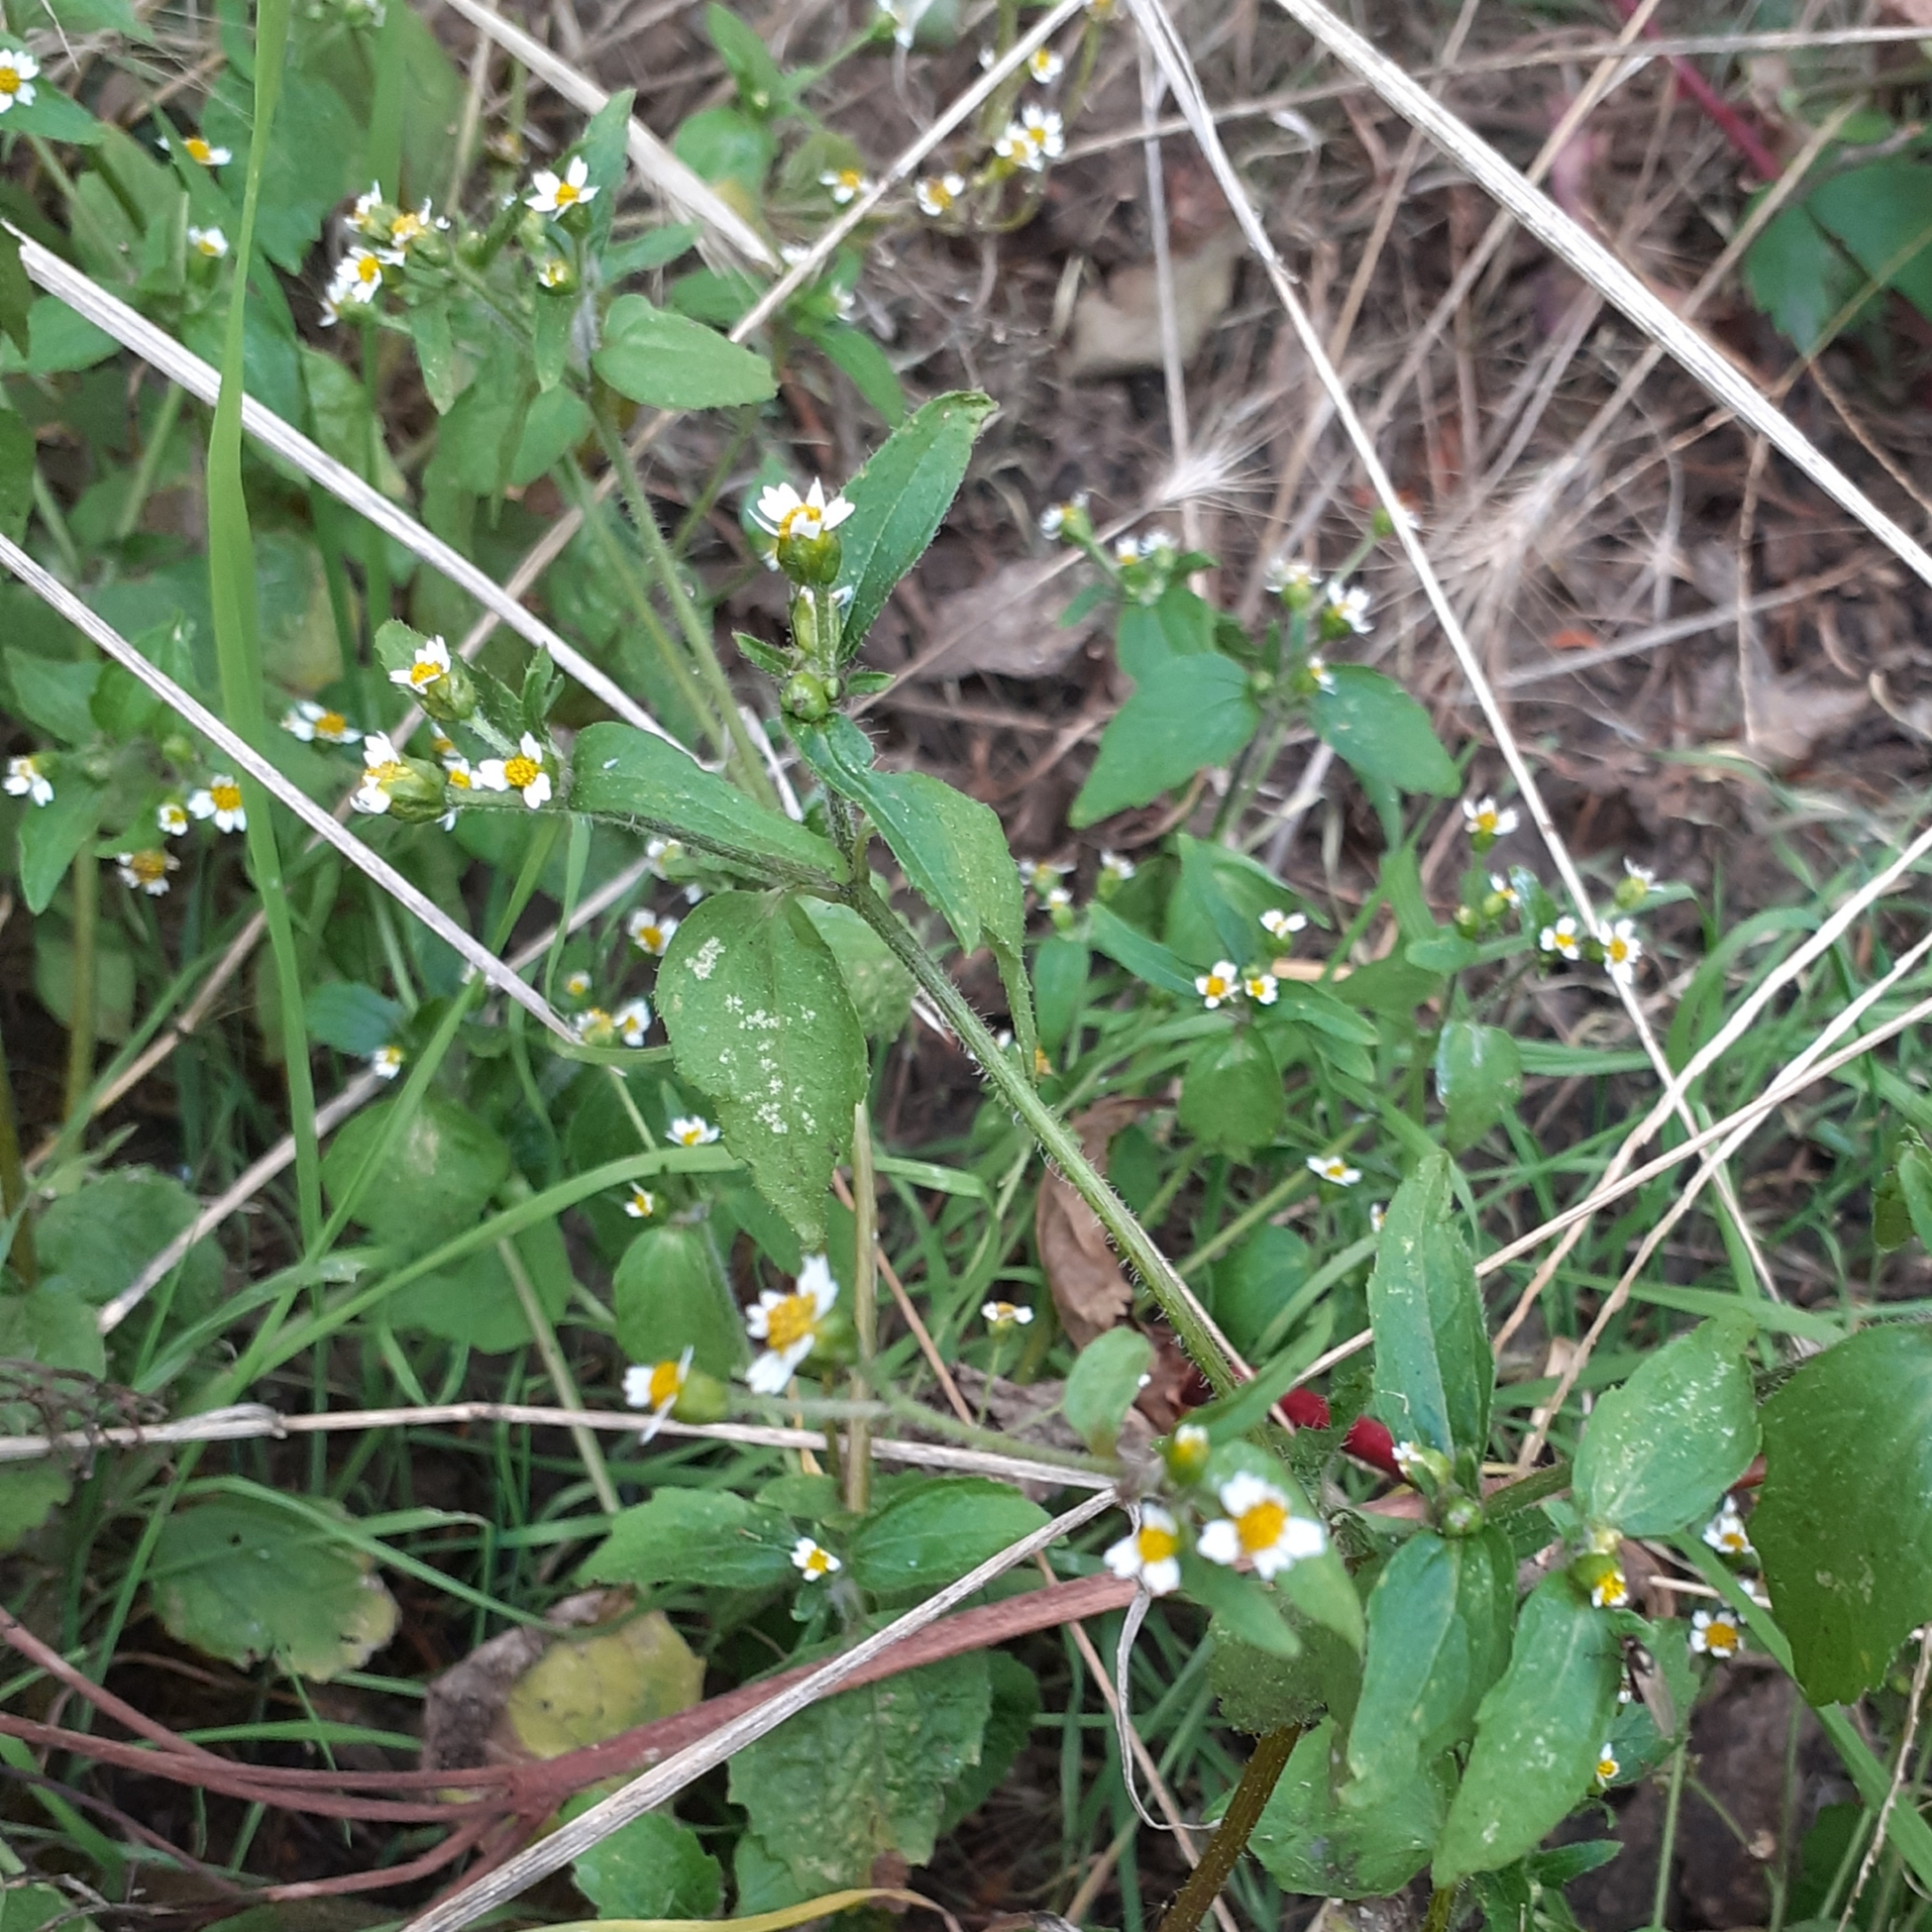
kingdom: Plantae
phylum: Tracheophyta
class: Magnoliopsida
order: Asterales
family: Asteraceae
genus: Galinsoga
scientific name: Galinsoga quadriradiata
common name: Shaggy soldier
